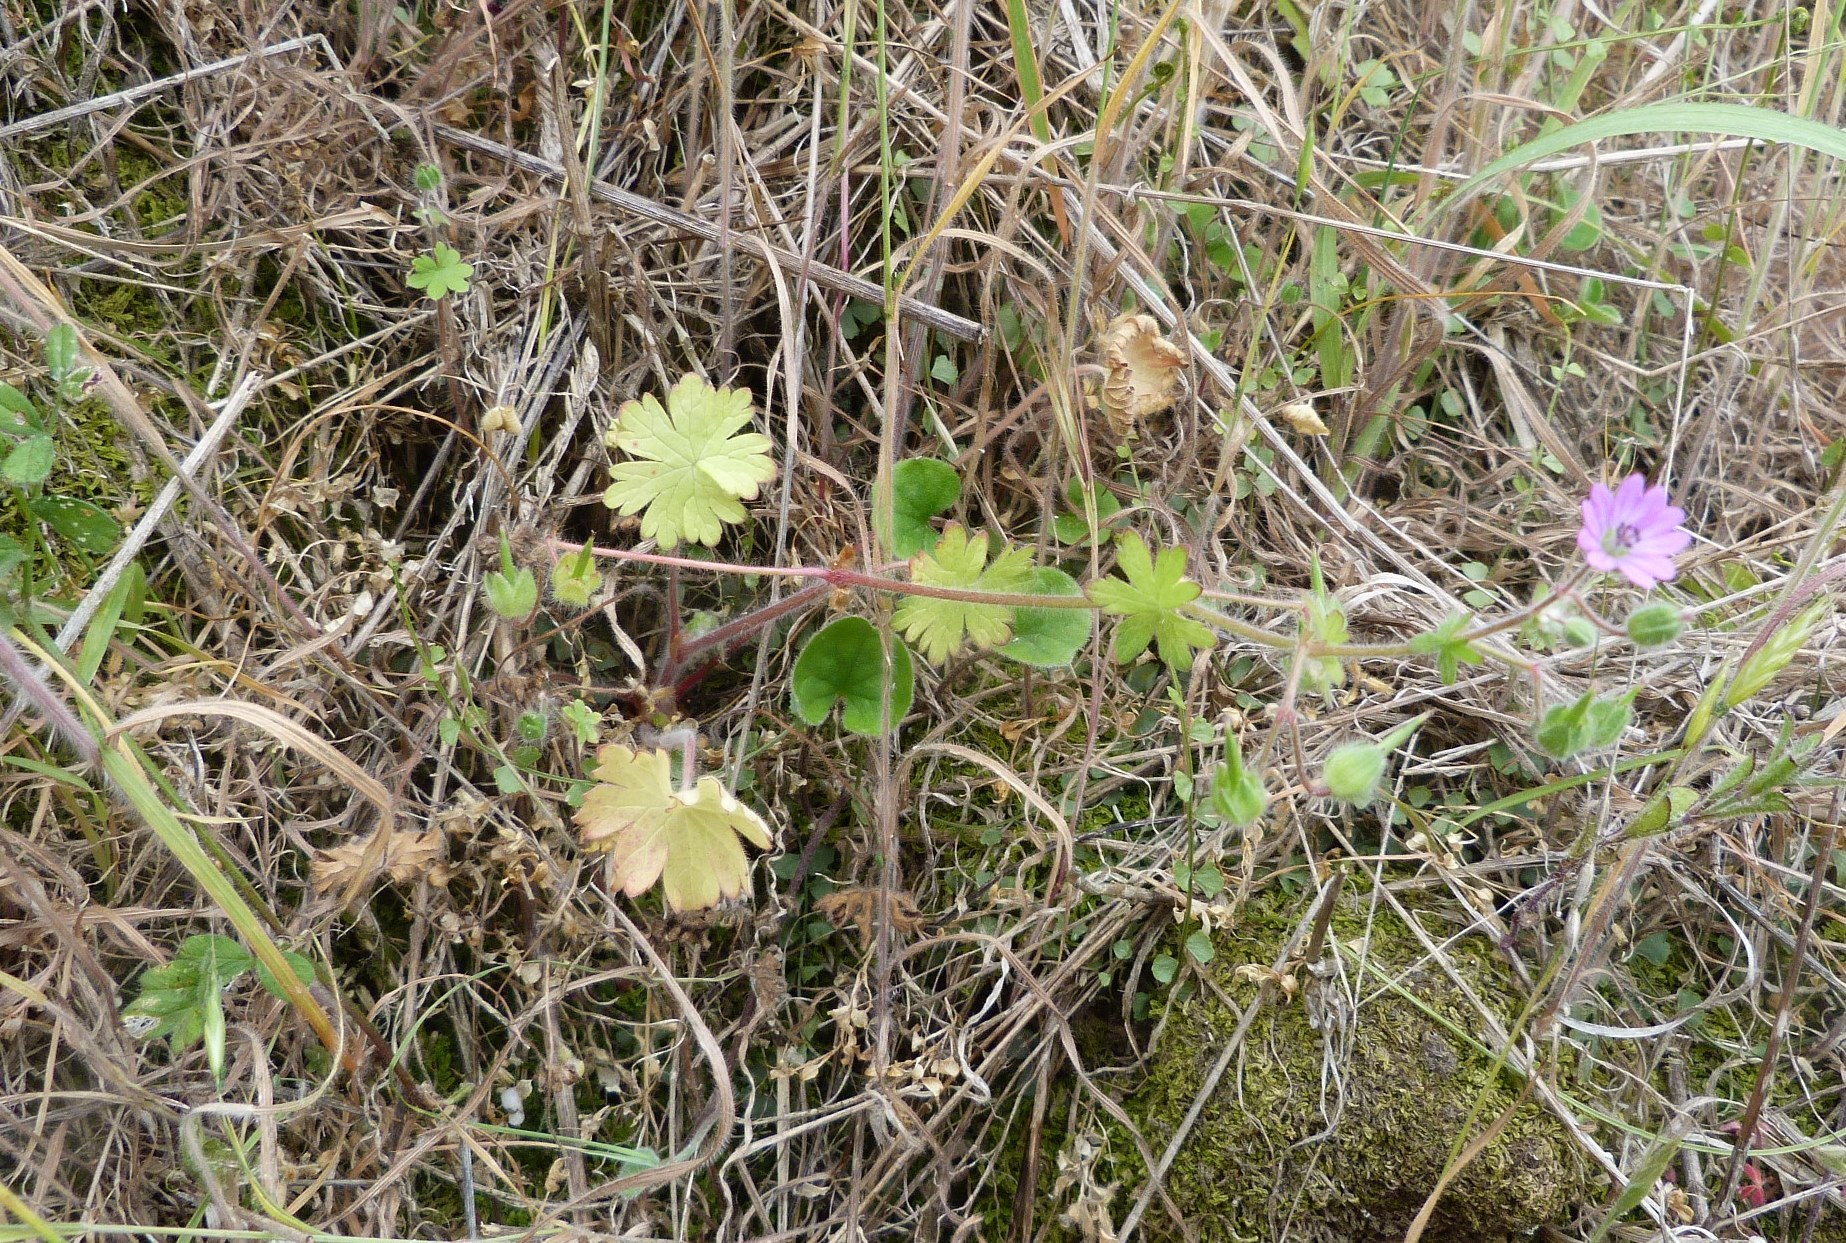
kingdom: Plantae
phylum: Tracheophyta
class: Magnoliopsida
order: Solanales
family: Convolvulaceae
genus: Dichondra
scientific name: Dichondra repens
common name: Kidneyweed
